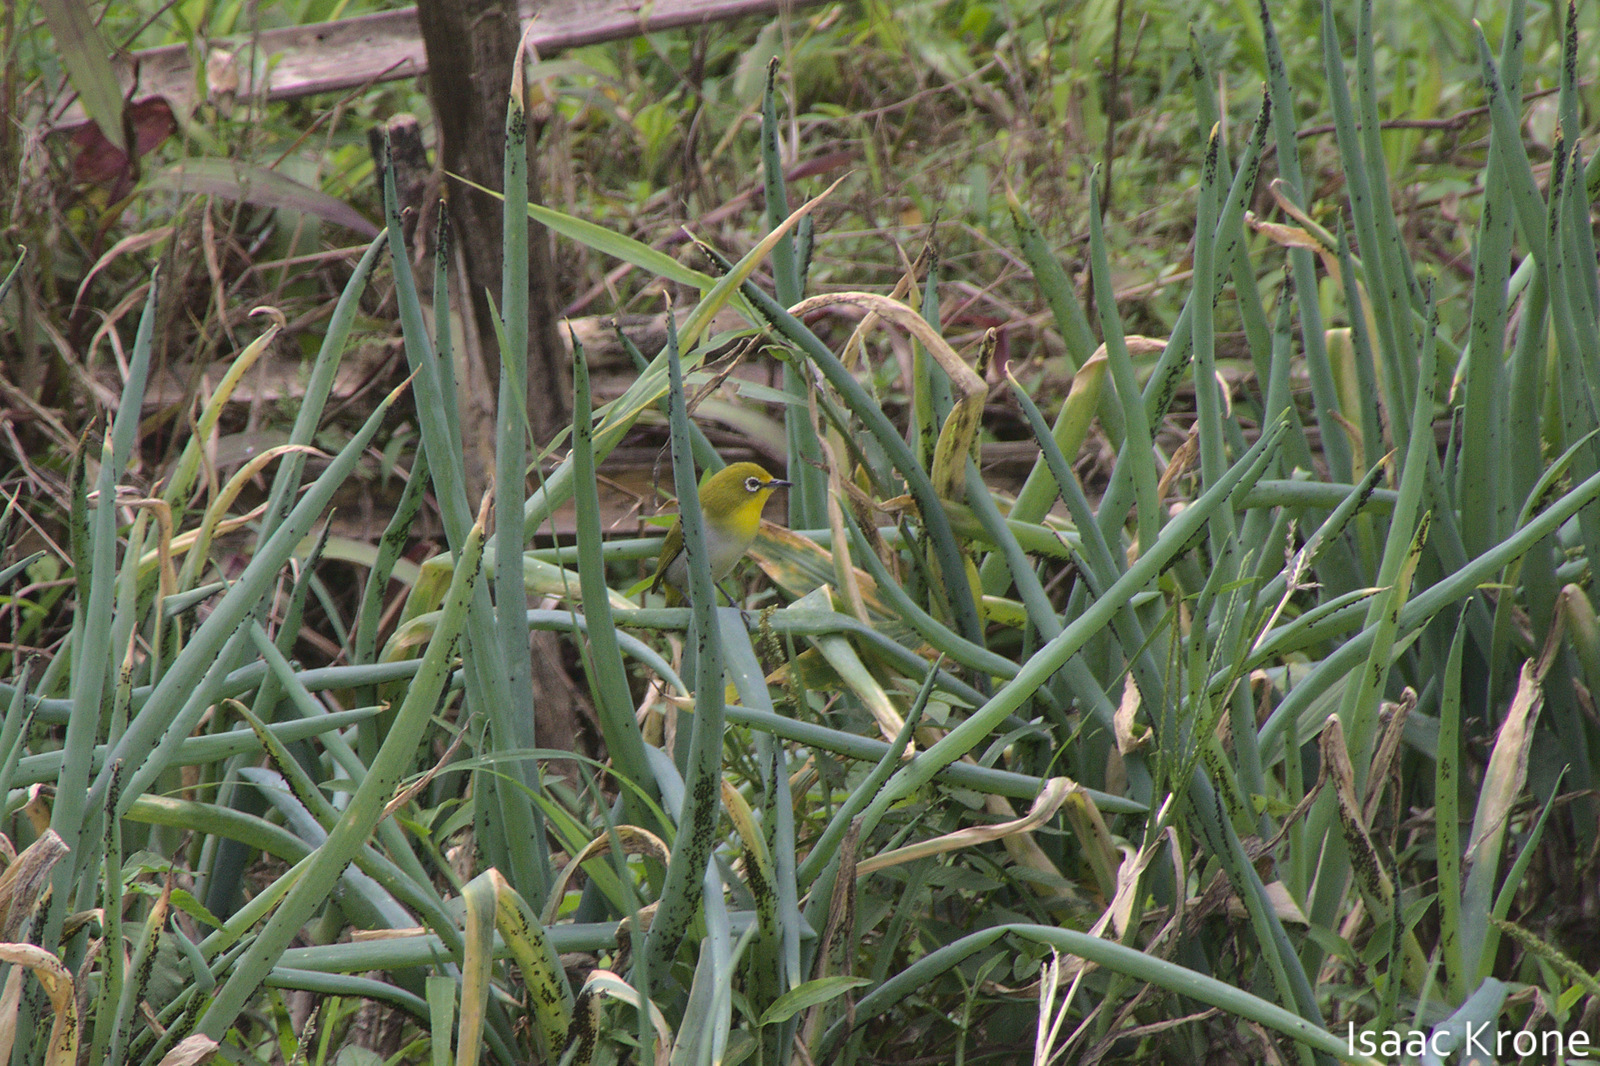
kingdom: Animalia
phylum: Chordata
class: Aves
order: Passeriformes
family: Zosteropidae
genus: Zosterops
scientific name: Zosterops japonicus
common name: Japanese white-eye
